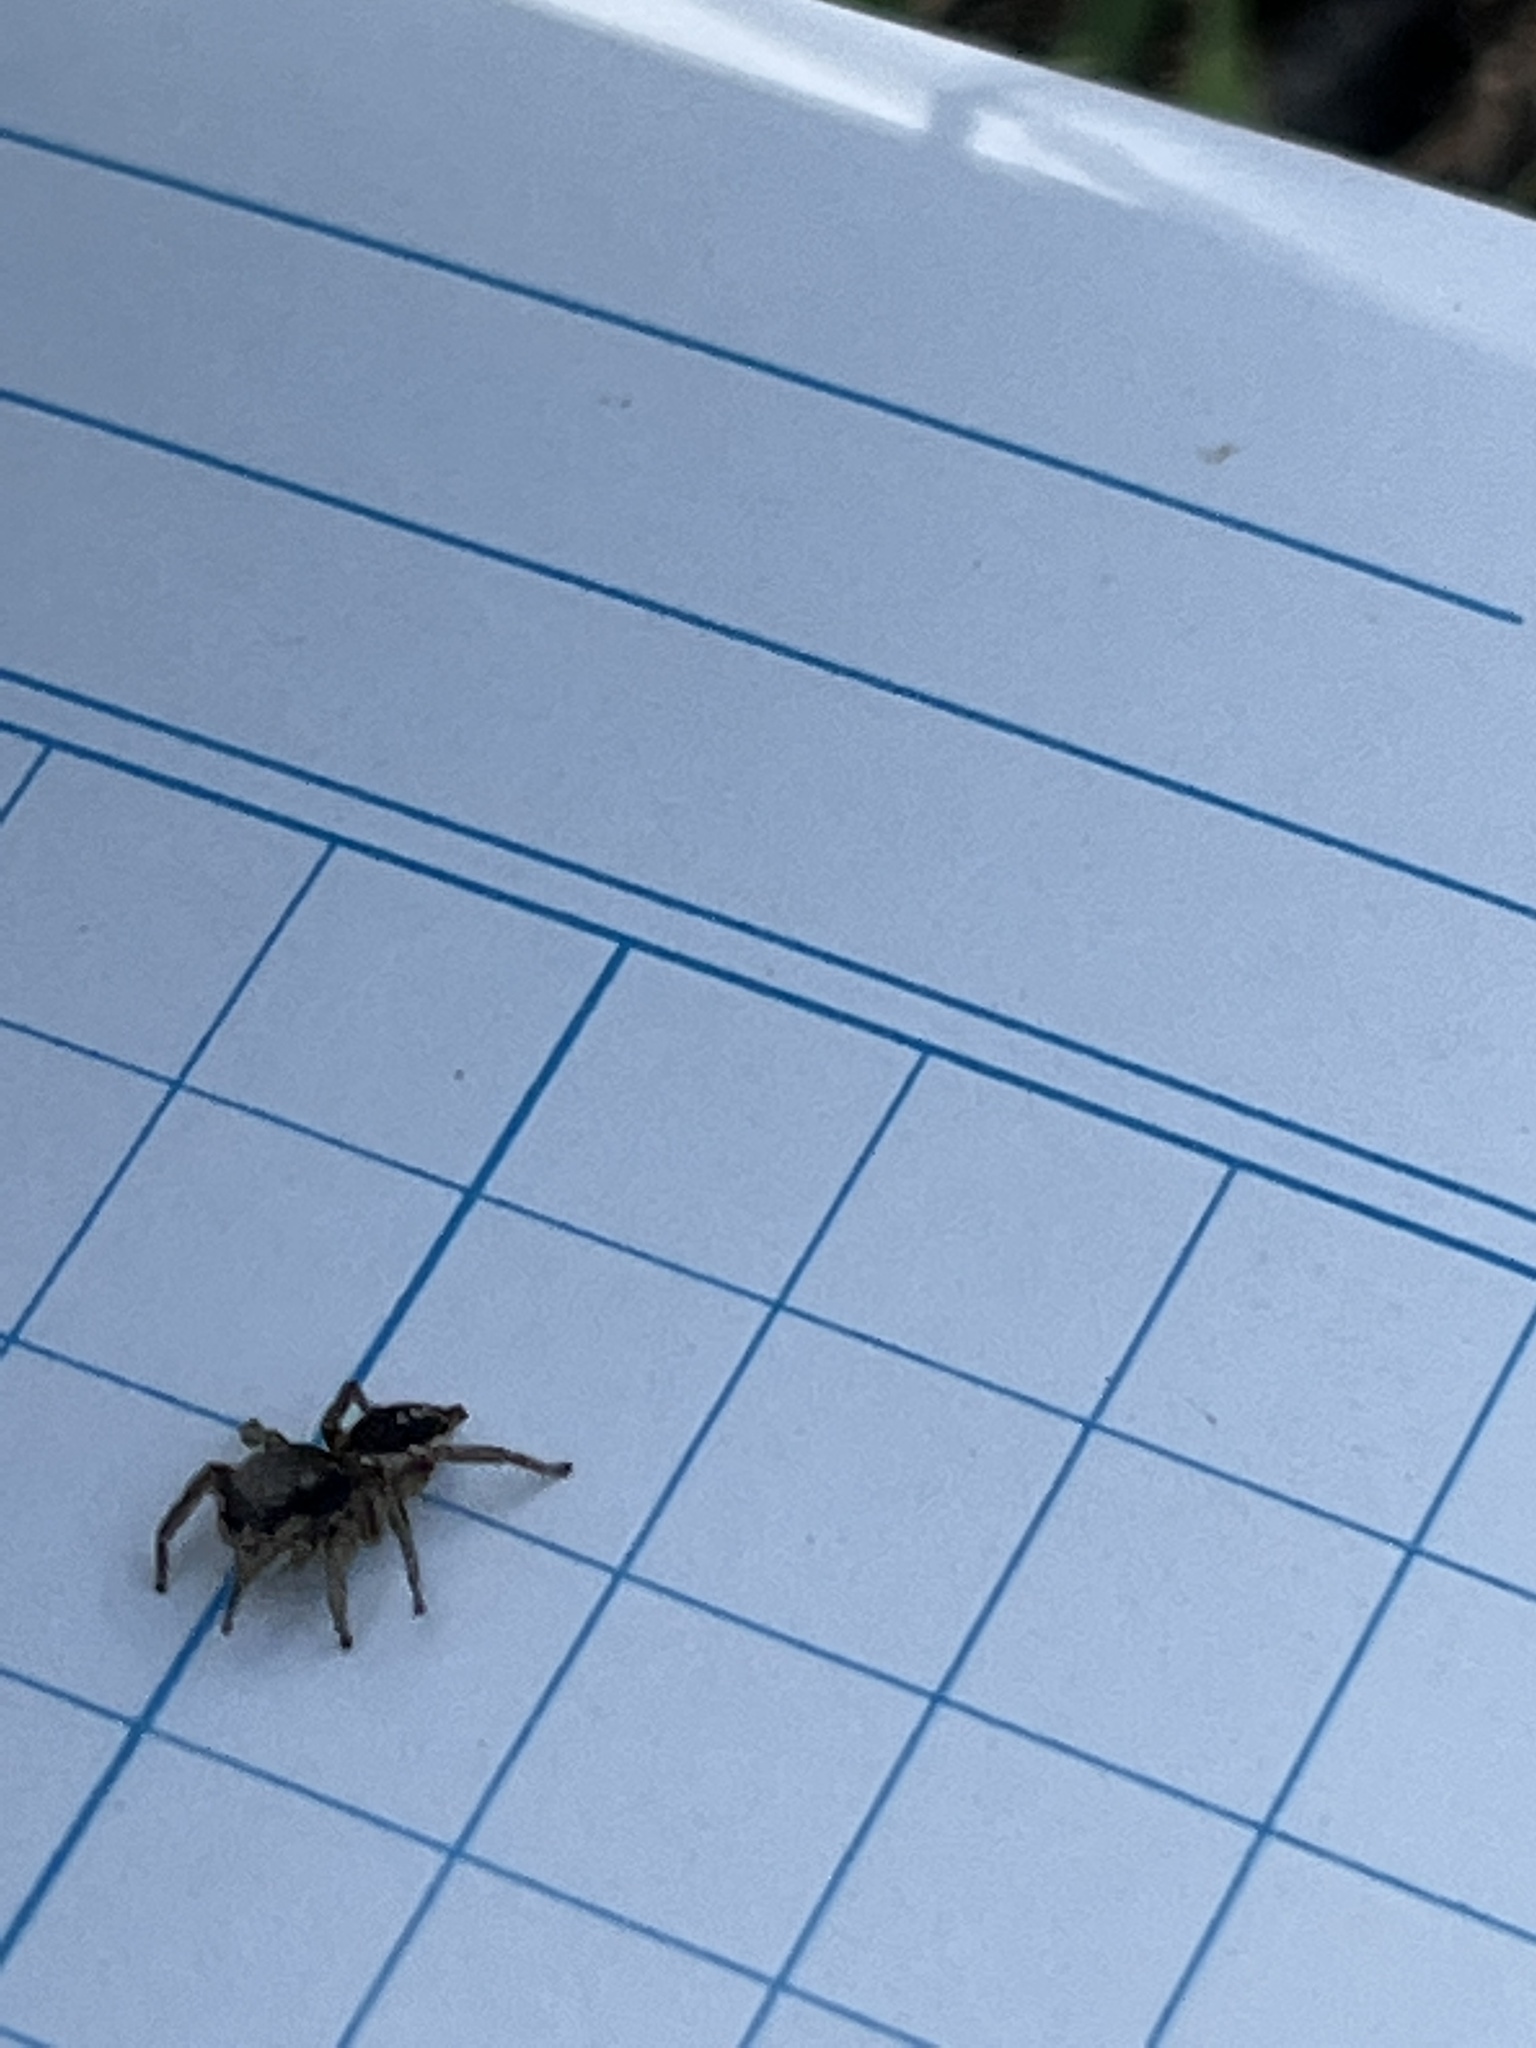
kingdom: Animalia
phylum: Arthropoda
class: Arachnida
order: Araneae
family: Salticidae
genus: Habronattus
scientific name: Habronattus mexicanus
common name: Jumping spiders
